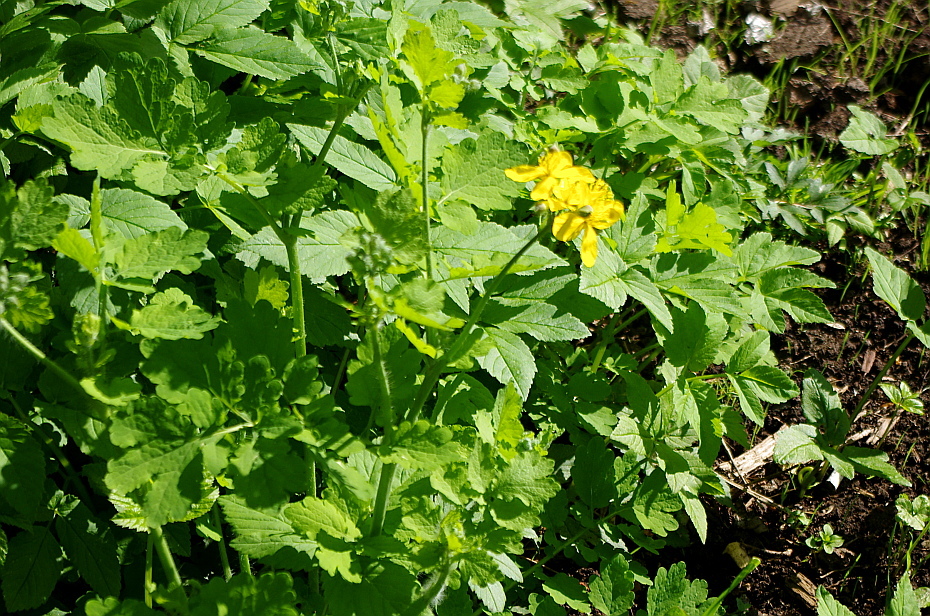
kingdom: Plantae
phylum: Tracheophyta
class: Magnoliopsida
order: Ranunculales
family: Papaveraceae
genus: Chelidonium
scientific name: Chelidonium majus
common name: Greater celandine
